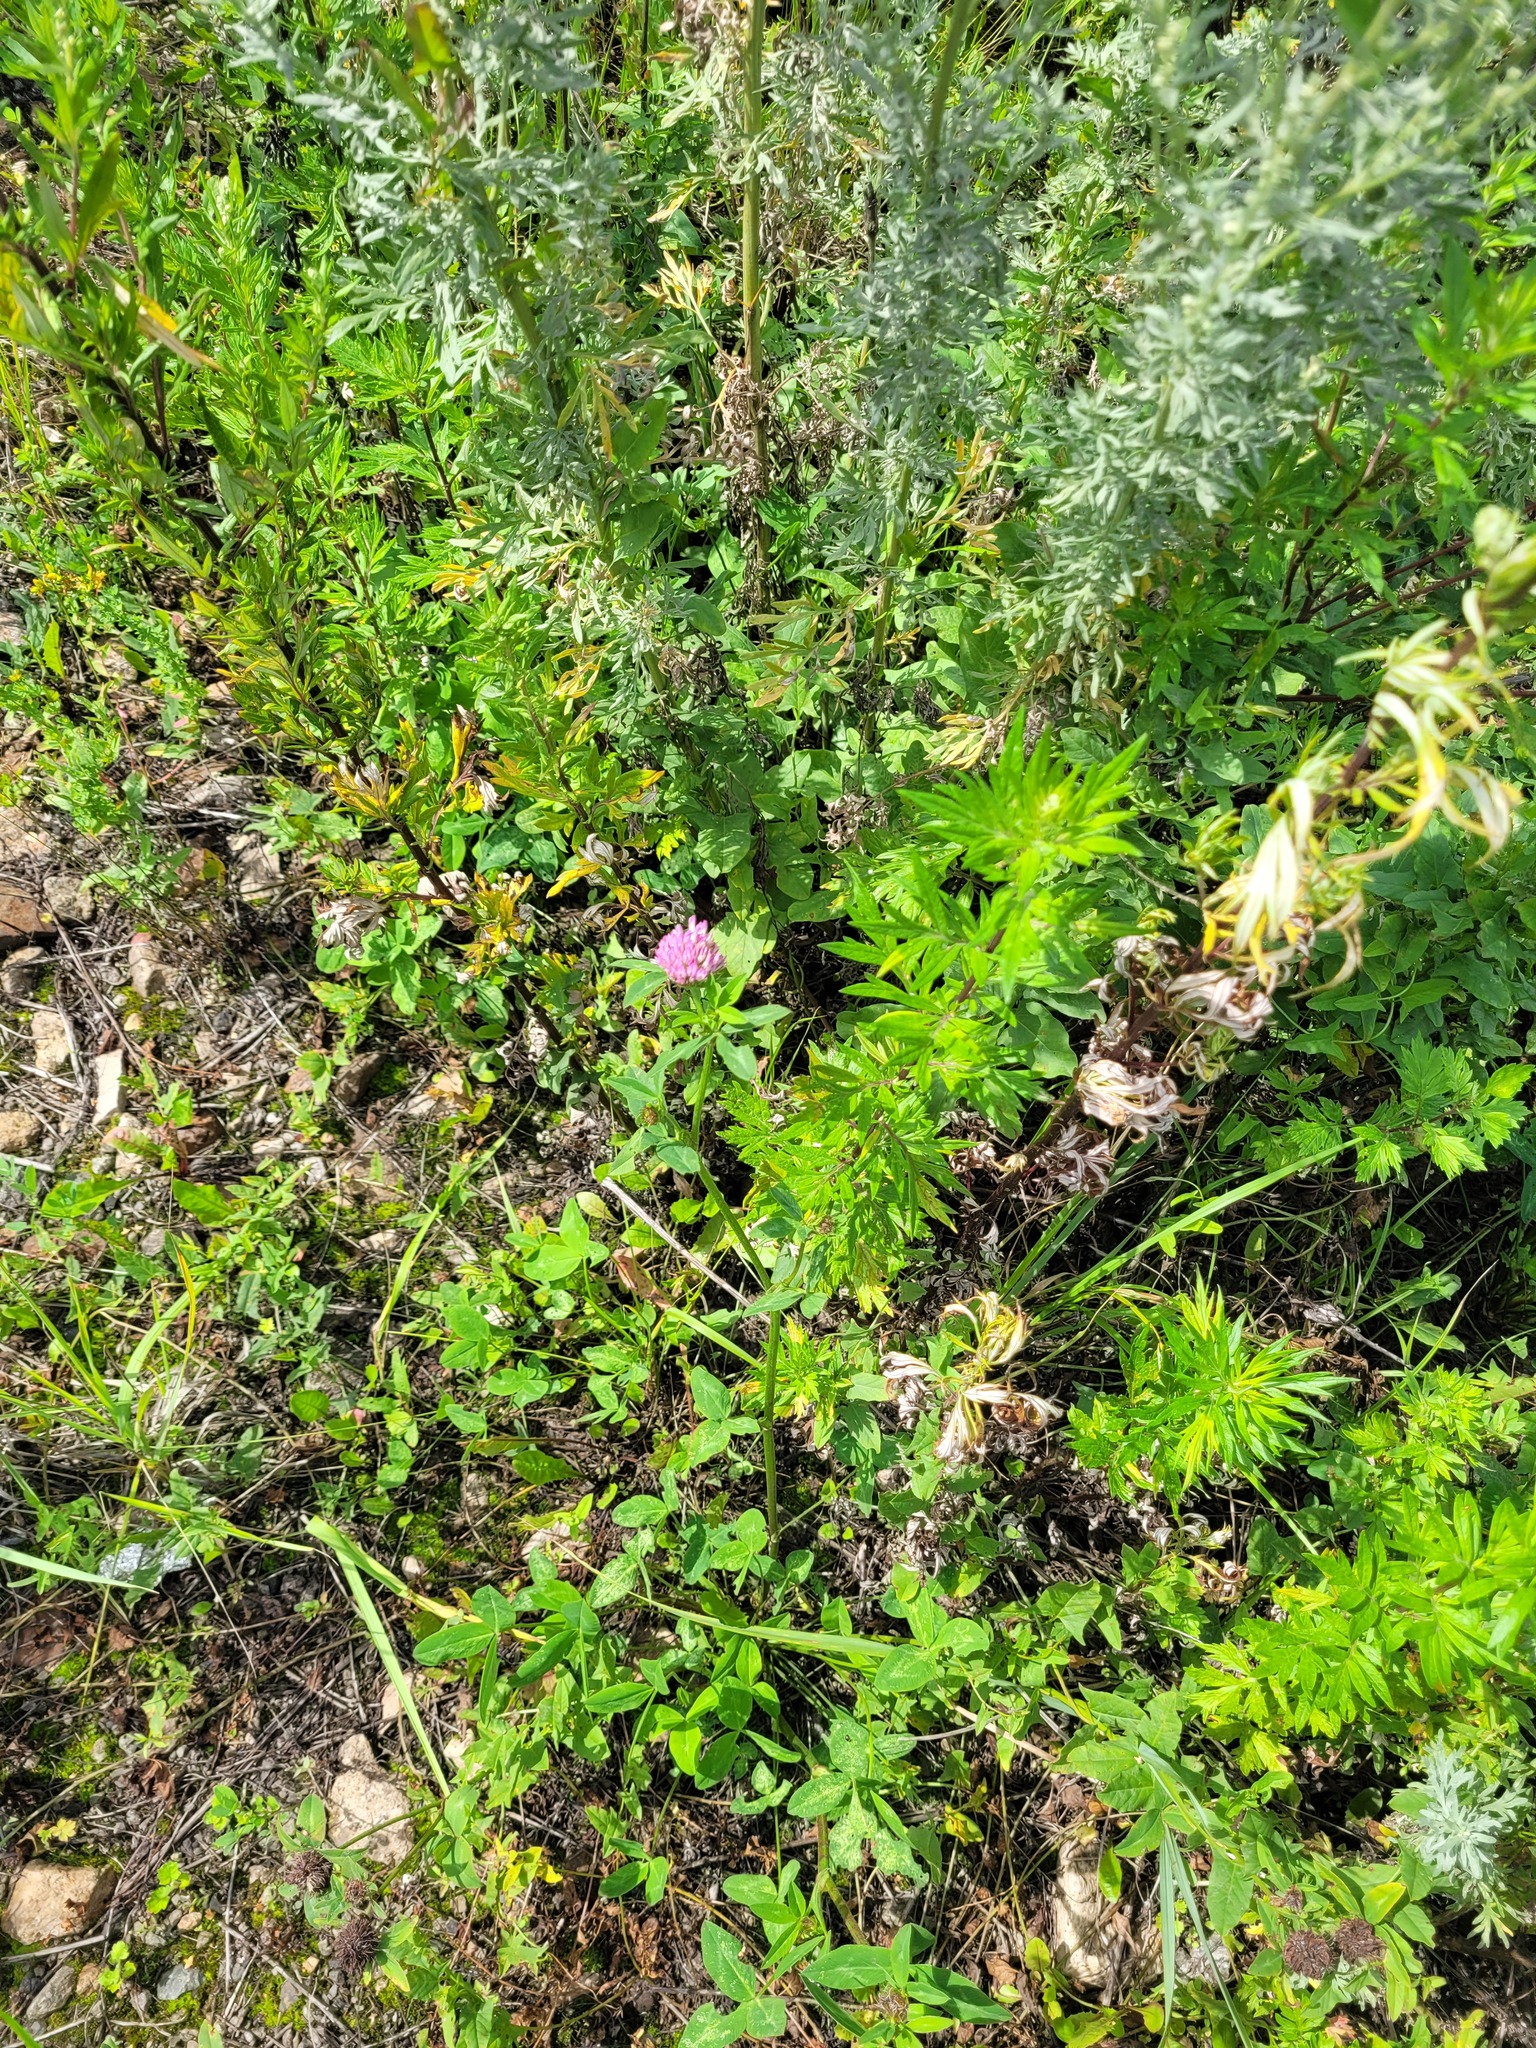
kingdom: Plantae
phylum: Tracheophyta
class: Magnoliopsida
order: Fabales
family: Fabaceae
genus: Trifolium
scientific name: Trifolium pratense
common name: Red clover
